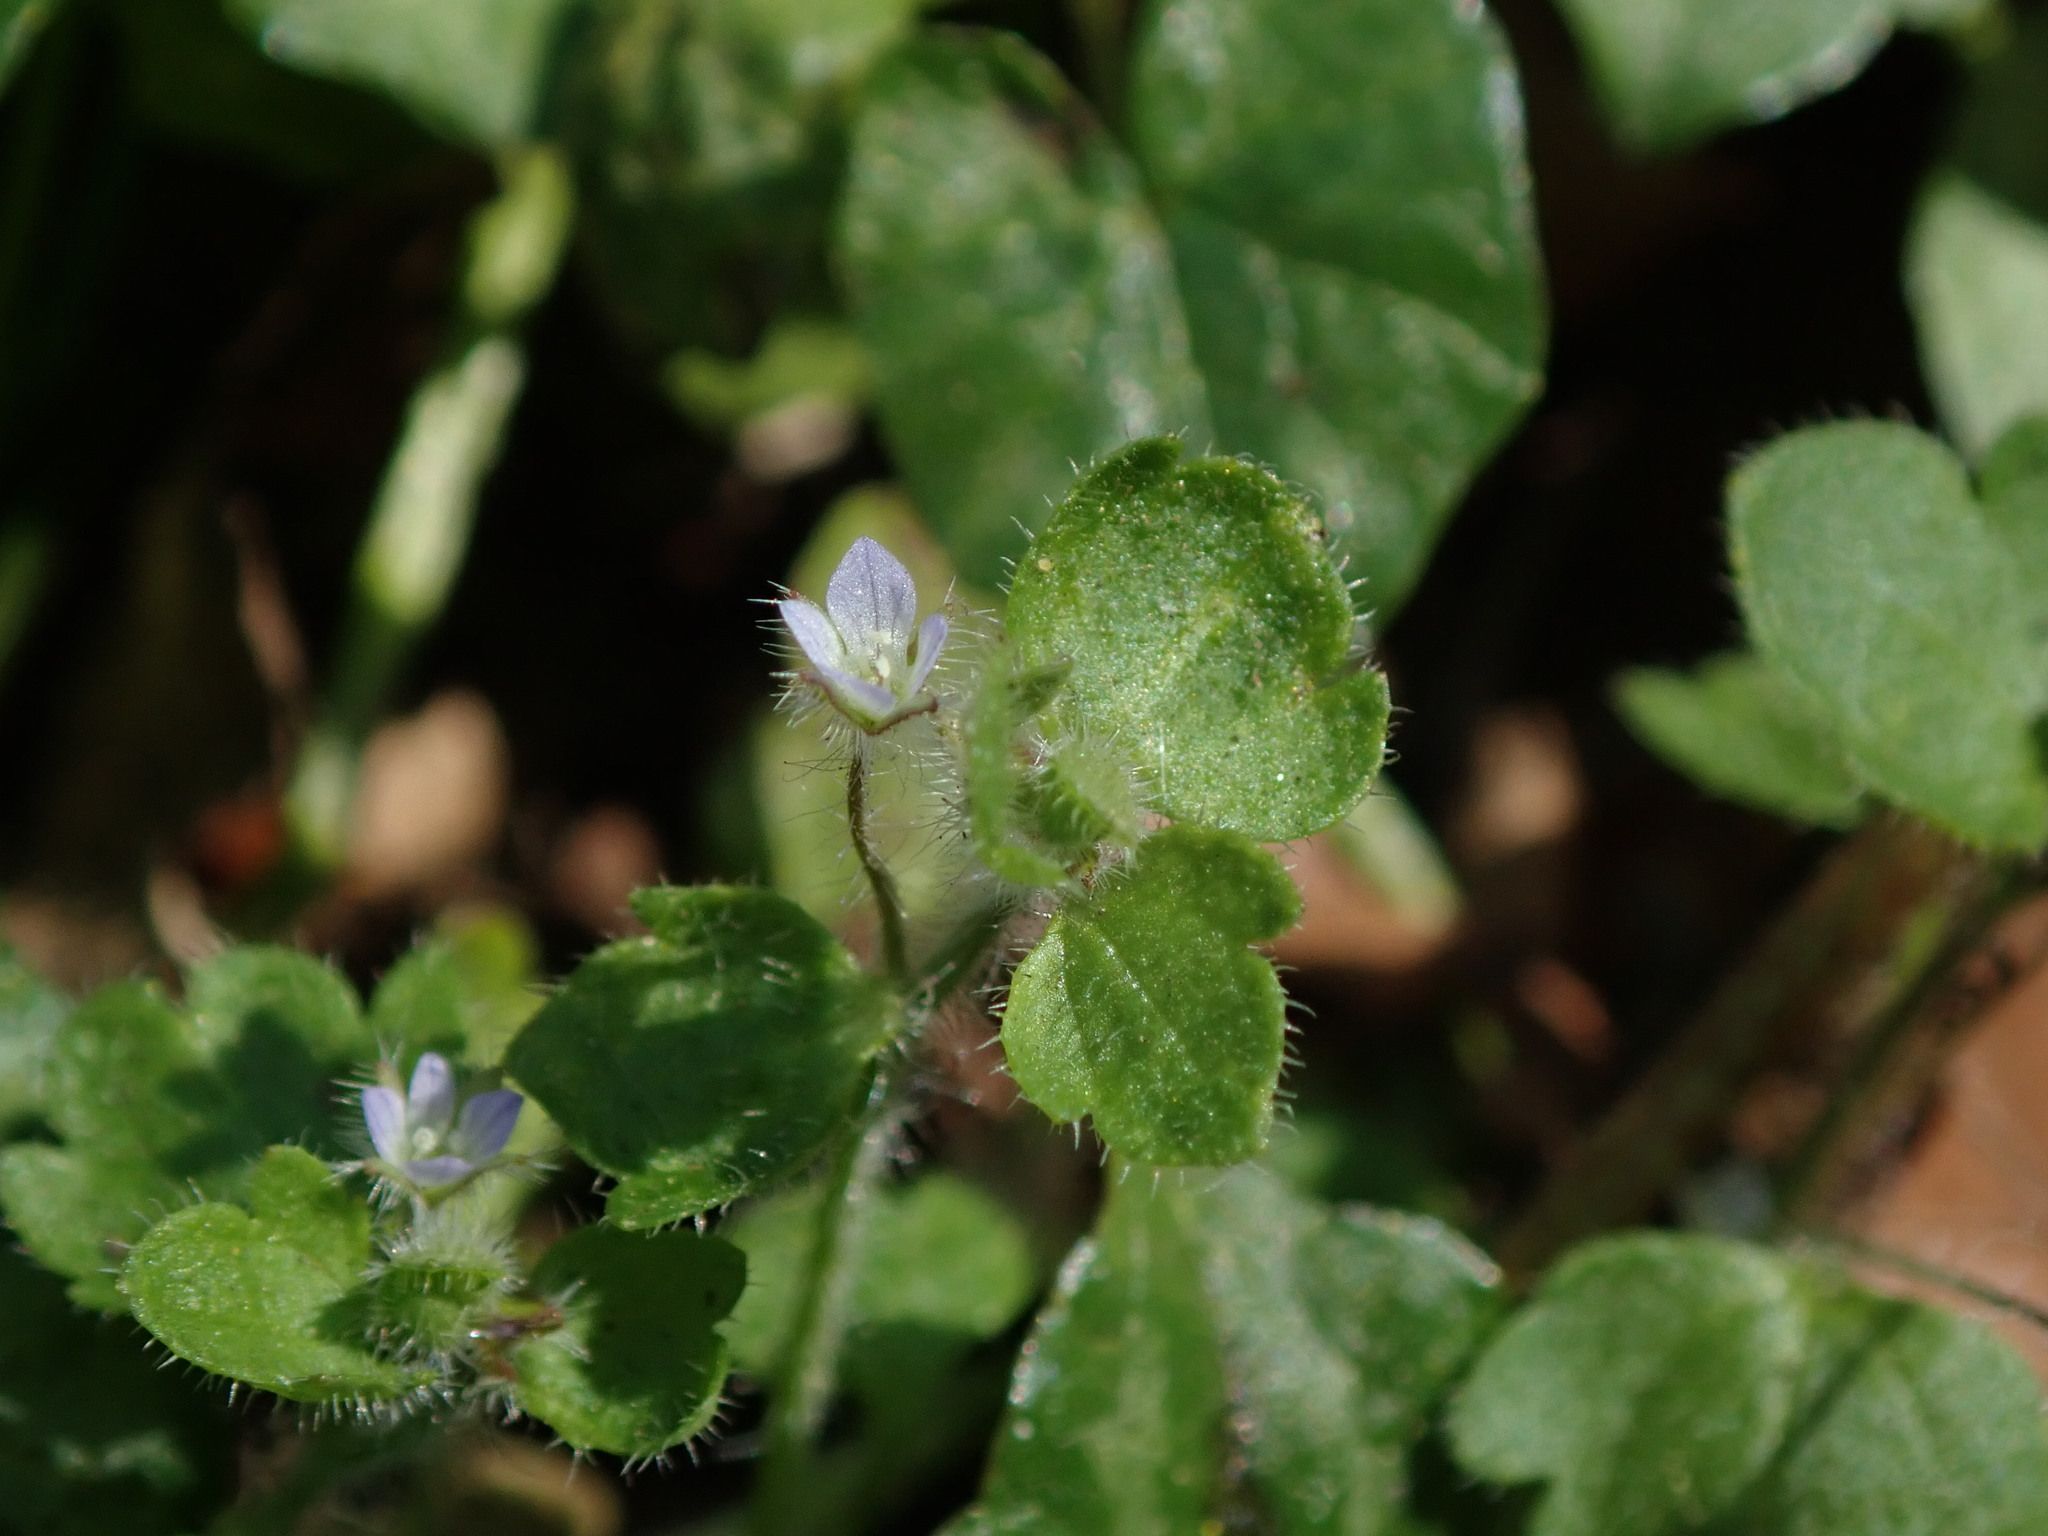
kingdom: Plantae
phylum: Tracheophyta
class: Magnoliopsida
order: Lamiales
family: Plantaginaceae
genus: Veronica
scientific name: Veronica sublobata
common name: False ivy-leaved speedwell
